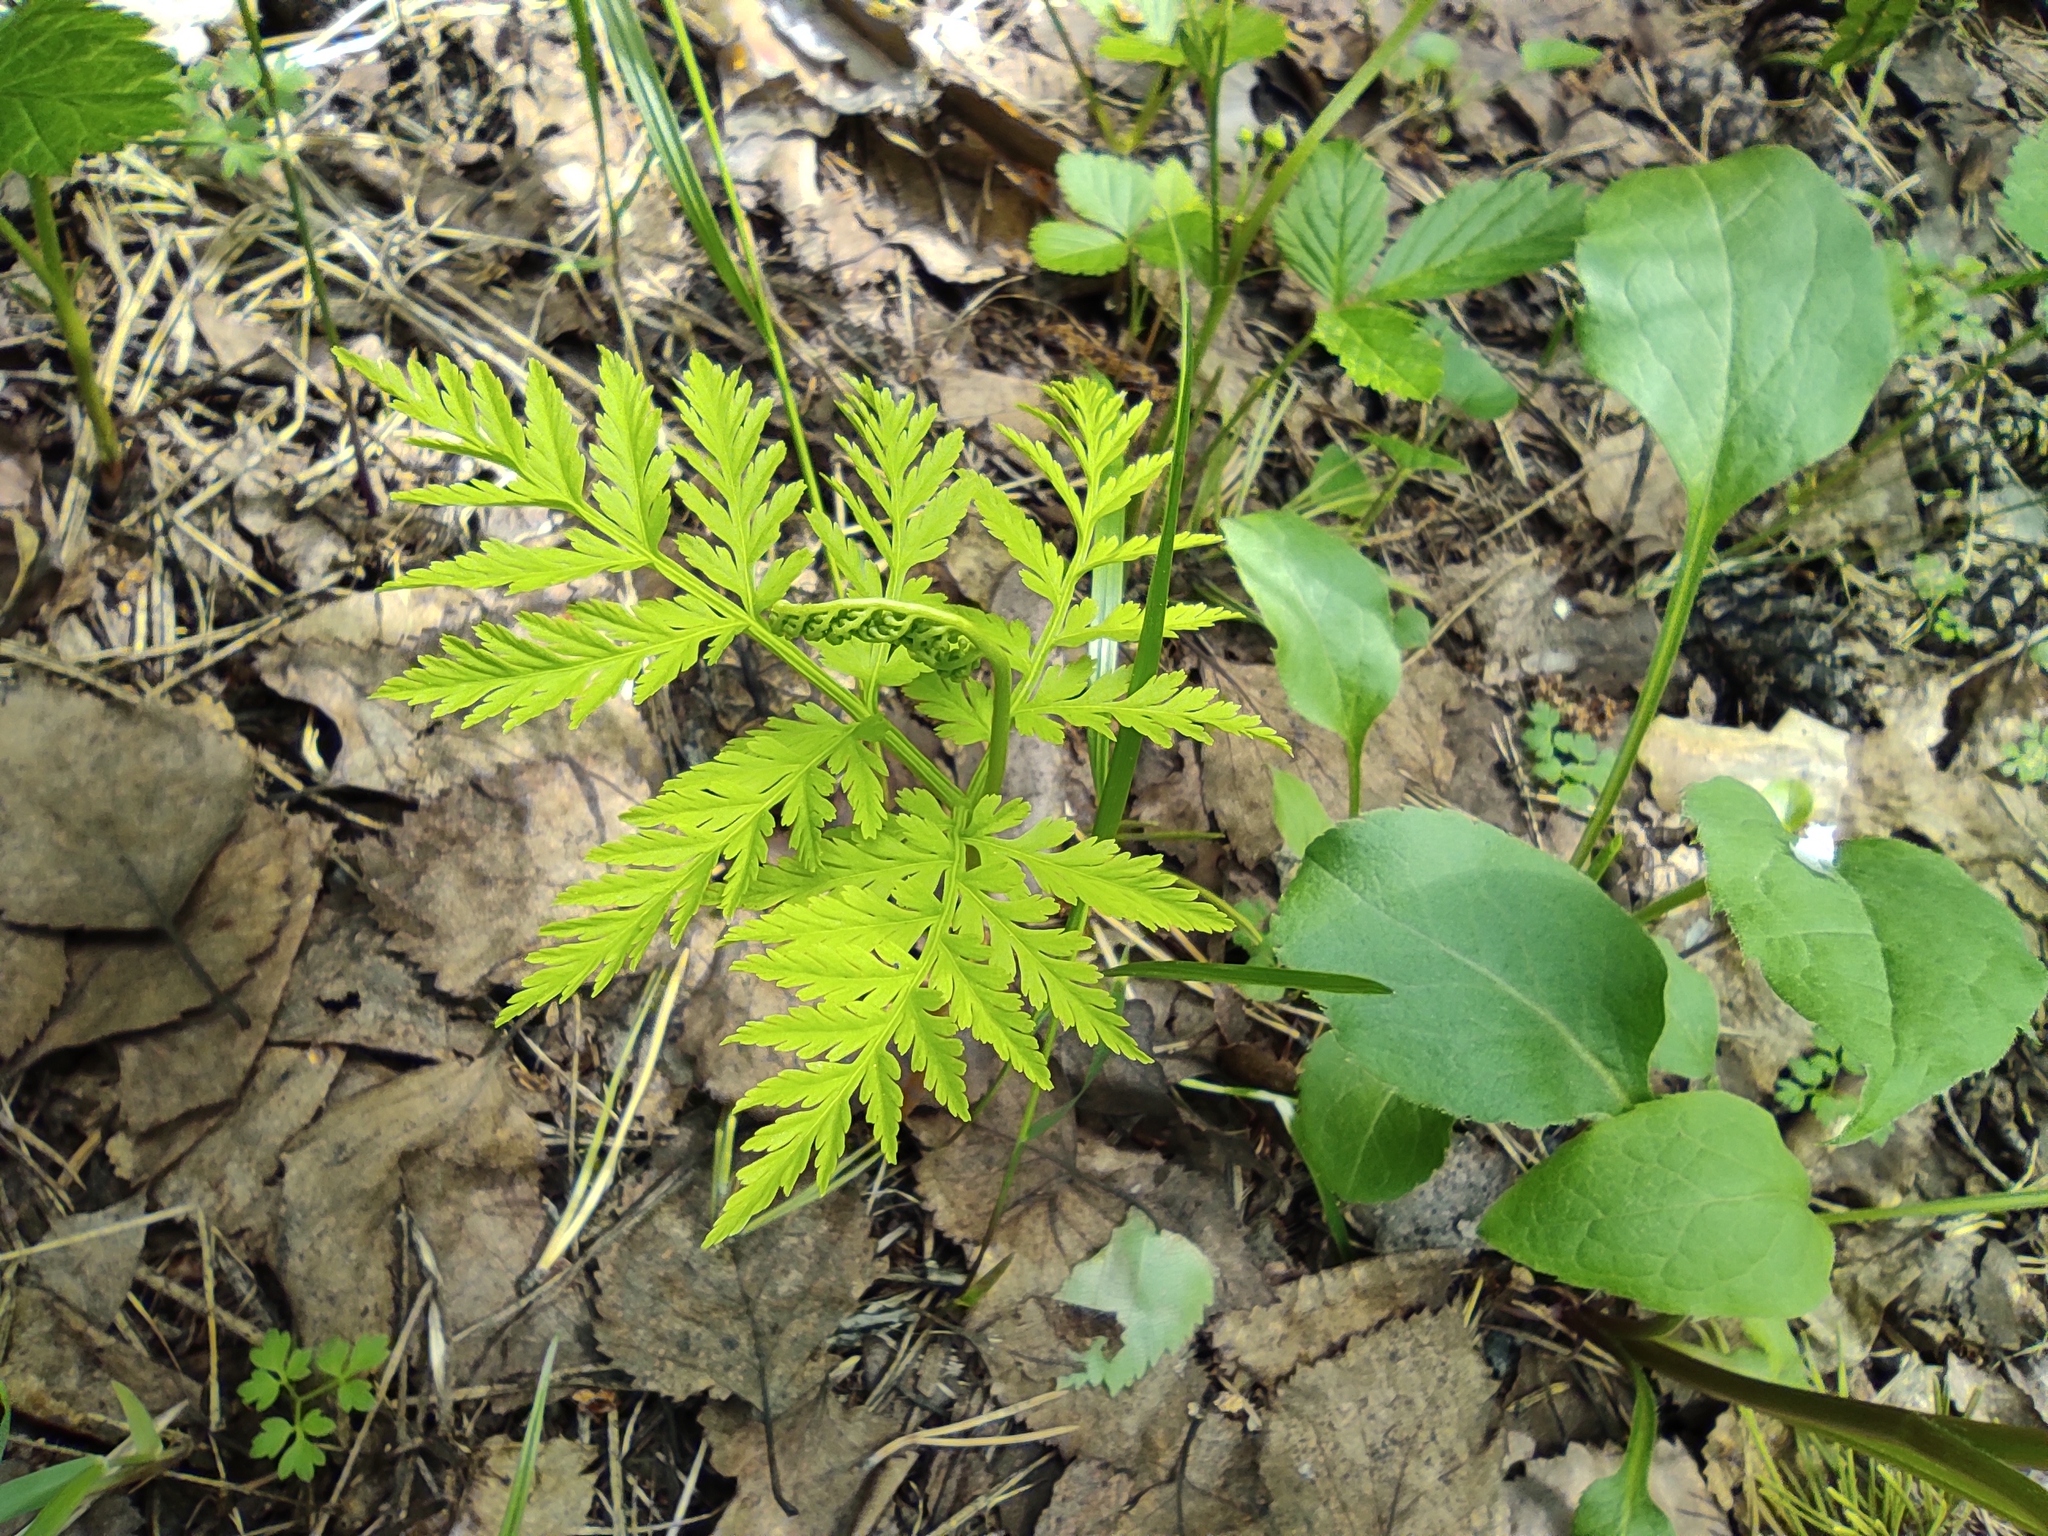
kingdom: Plantae
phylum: Tracheophyta
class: Polypodiopsida
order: Ophioglossales
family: Ophioglossaceae
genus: Botrypus
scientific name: Botrypus virginianus
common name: Common grapefern
